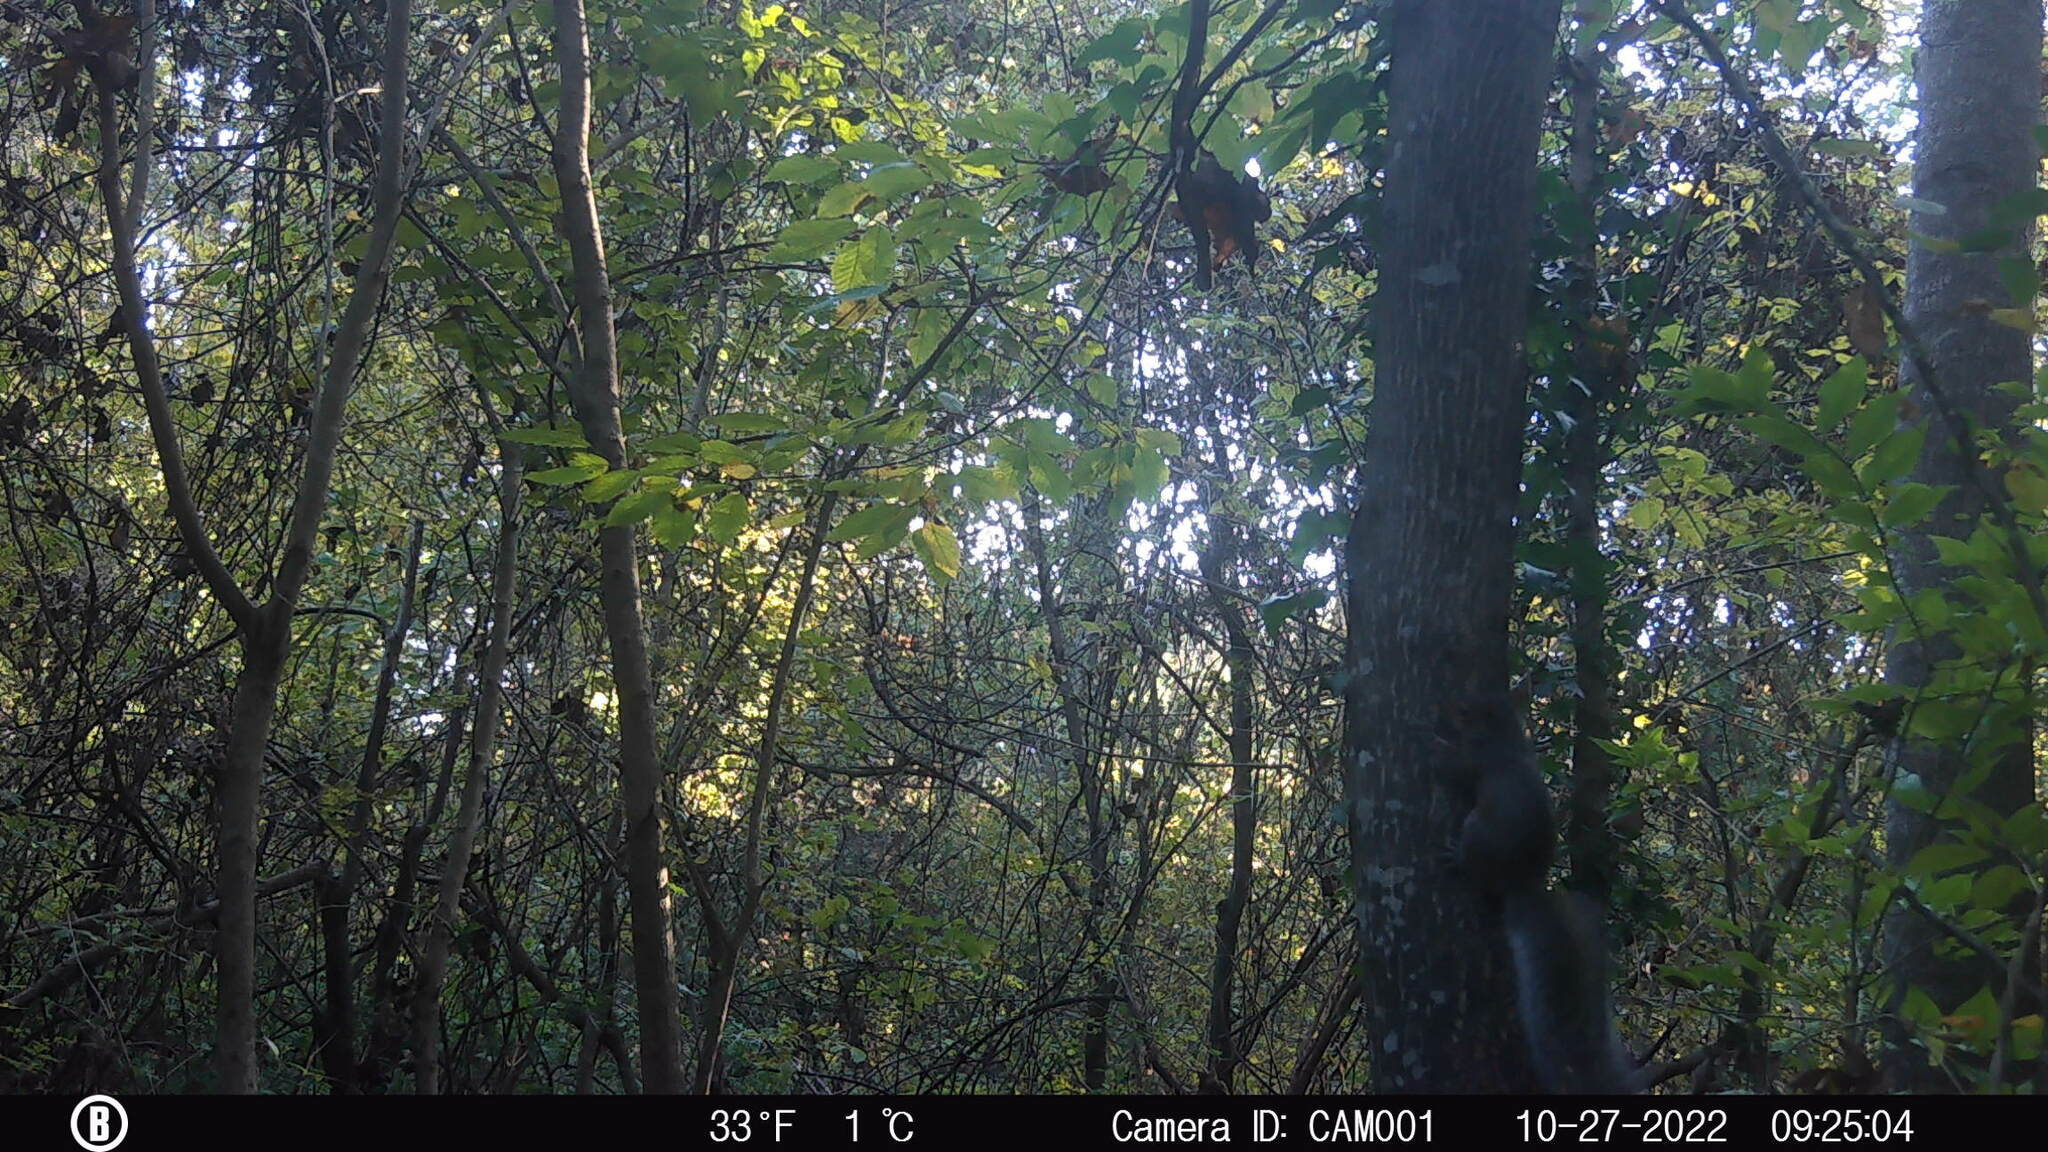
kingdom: Animalia
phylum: Chordata
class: Mammalia
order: Rodentia
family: Sciuridae
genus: Sciurus
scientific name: Sciurus carolinensis
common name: Eastern gray squirrel
